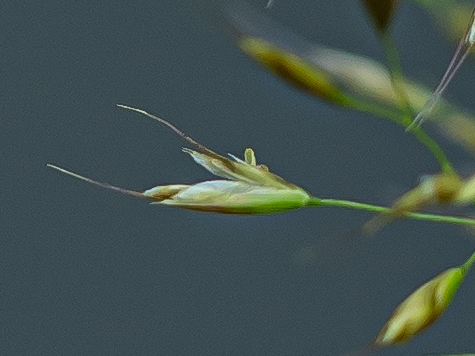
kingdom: Plantae
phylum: Tracheophyta
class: Liliopsida
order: Poales
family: Poaceae
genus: Trisetum
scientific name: Trisetum flavescens
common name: Yellow oat-grass
